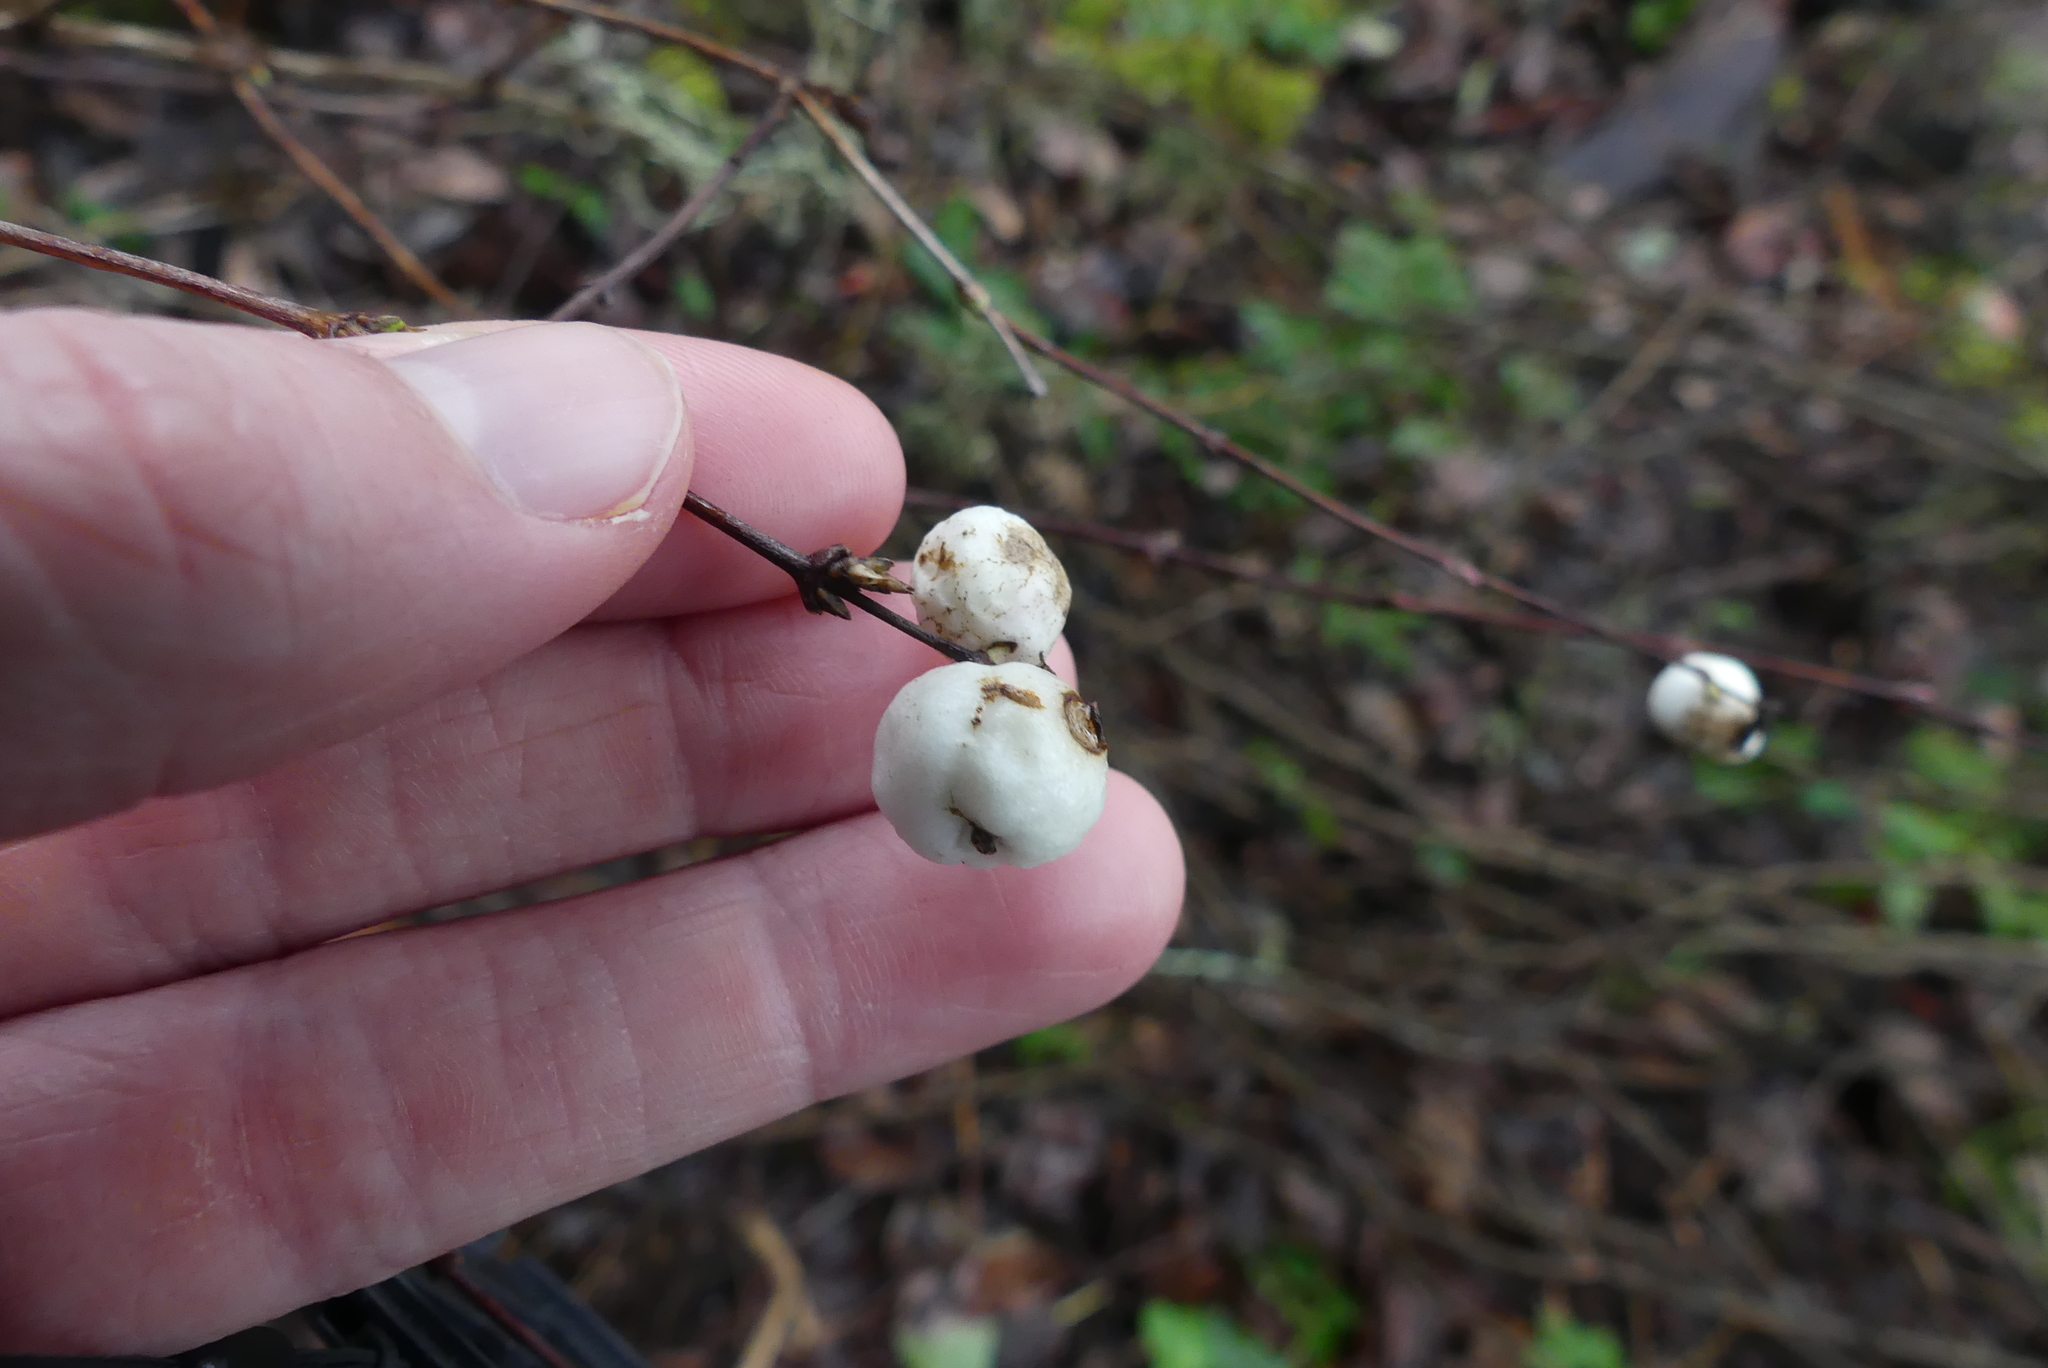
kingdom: Plantae
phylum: Tracheophyta
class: Magnoliopsida
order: Dipsacales
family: Caprifoliaceae
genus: Symphoricarpos
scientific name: Symphoricarpos albus
